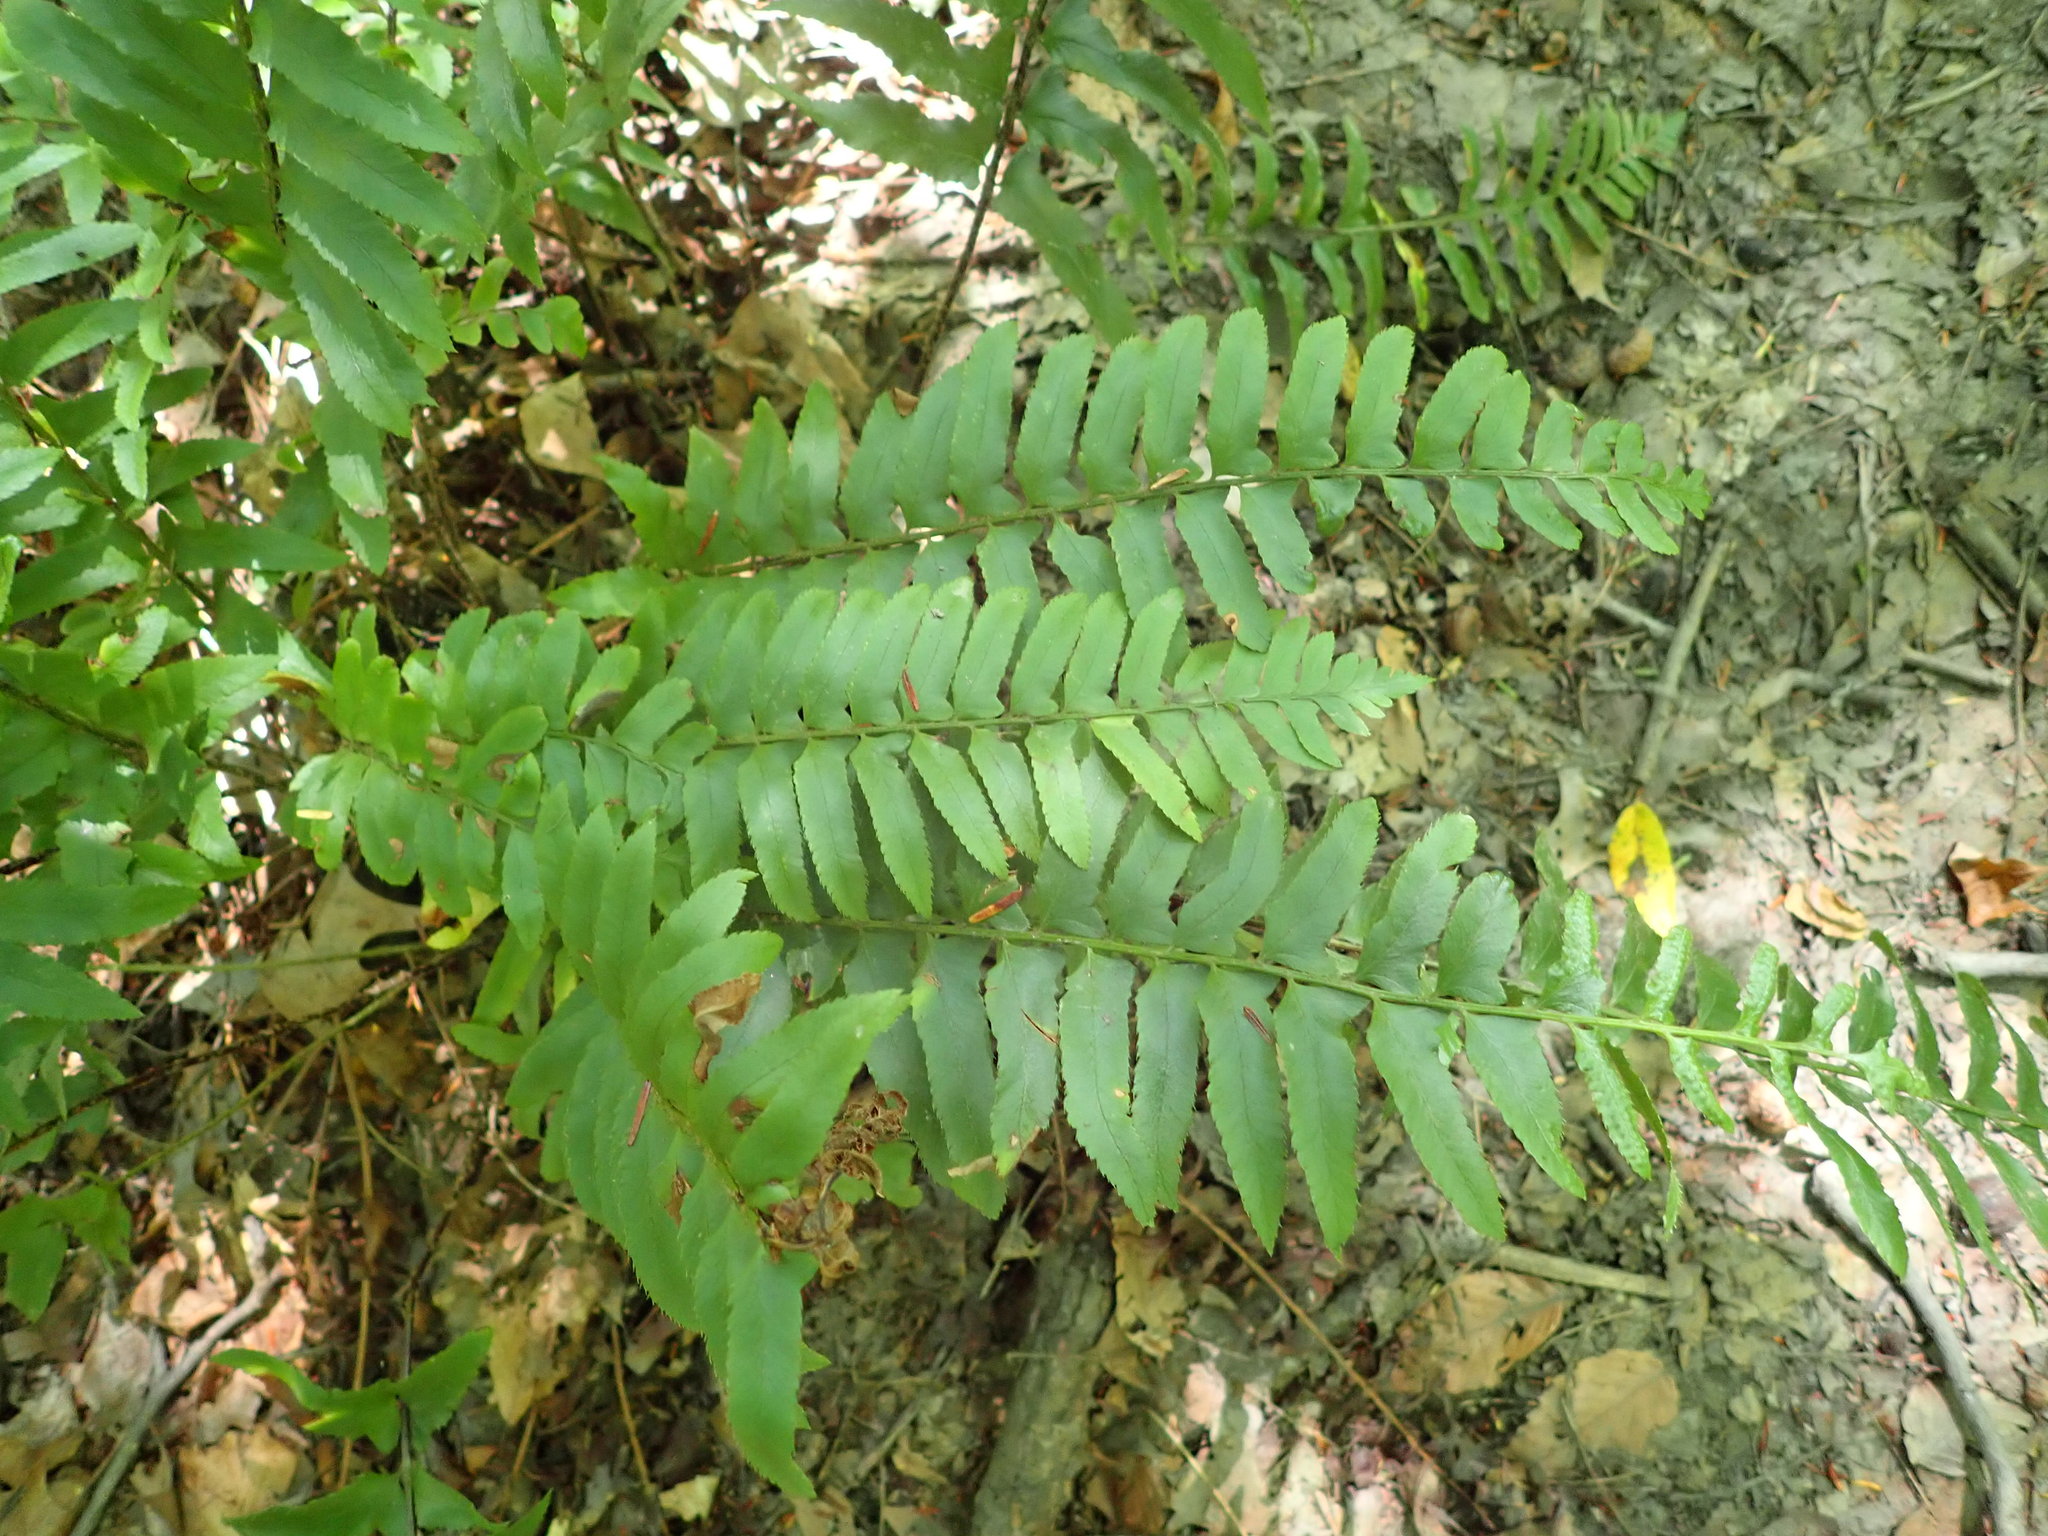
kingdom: Plantae
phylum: Tracheophyta
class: Polypodiopsida
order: Polypodiales
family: Dryopteridaceae
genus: Polystichum
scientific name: Polystichum acrostichoides
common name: Christmas fern
